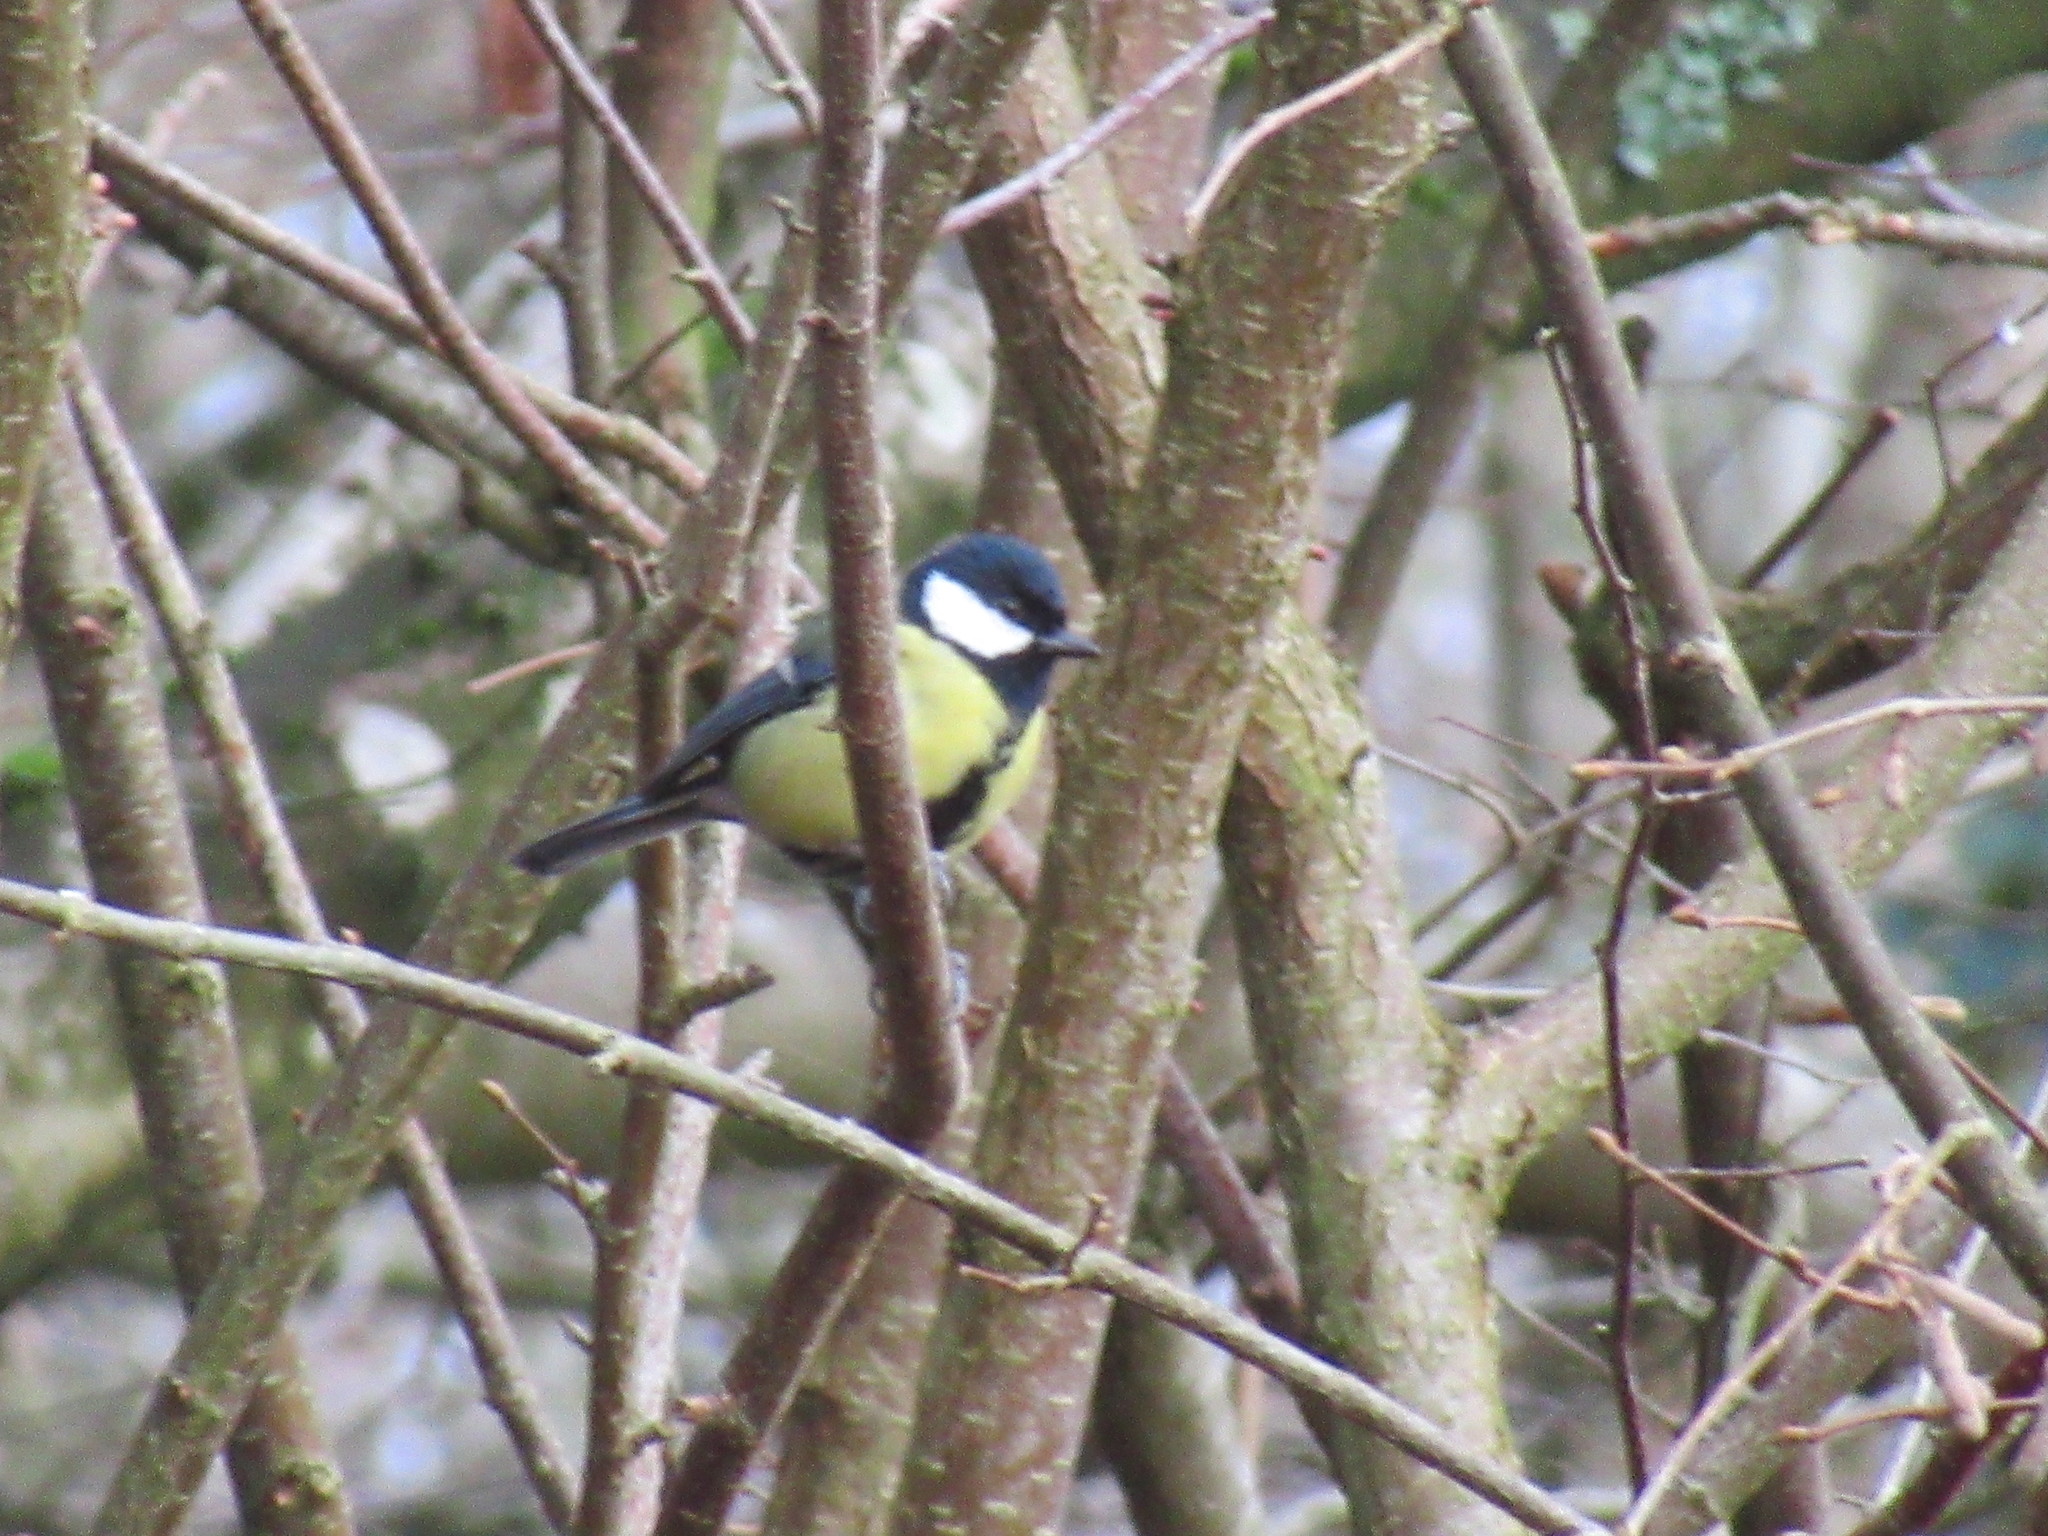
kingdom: Animalia
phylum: Chordata
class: Aves
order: Passeriformes
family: Paridae
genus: Parus
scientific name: Parus major
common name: Great tit
